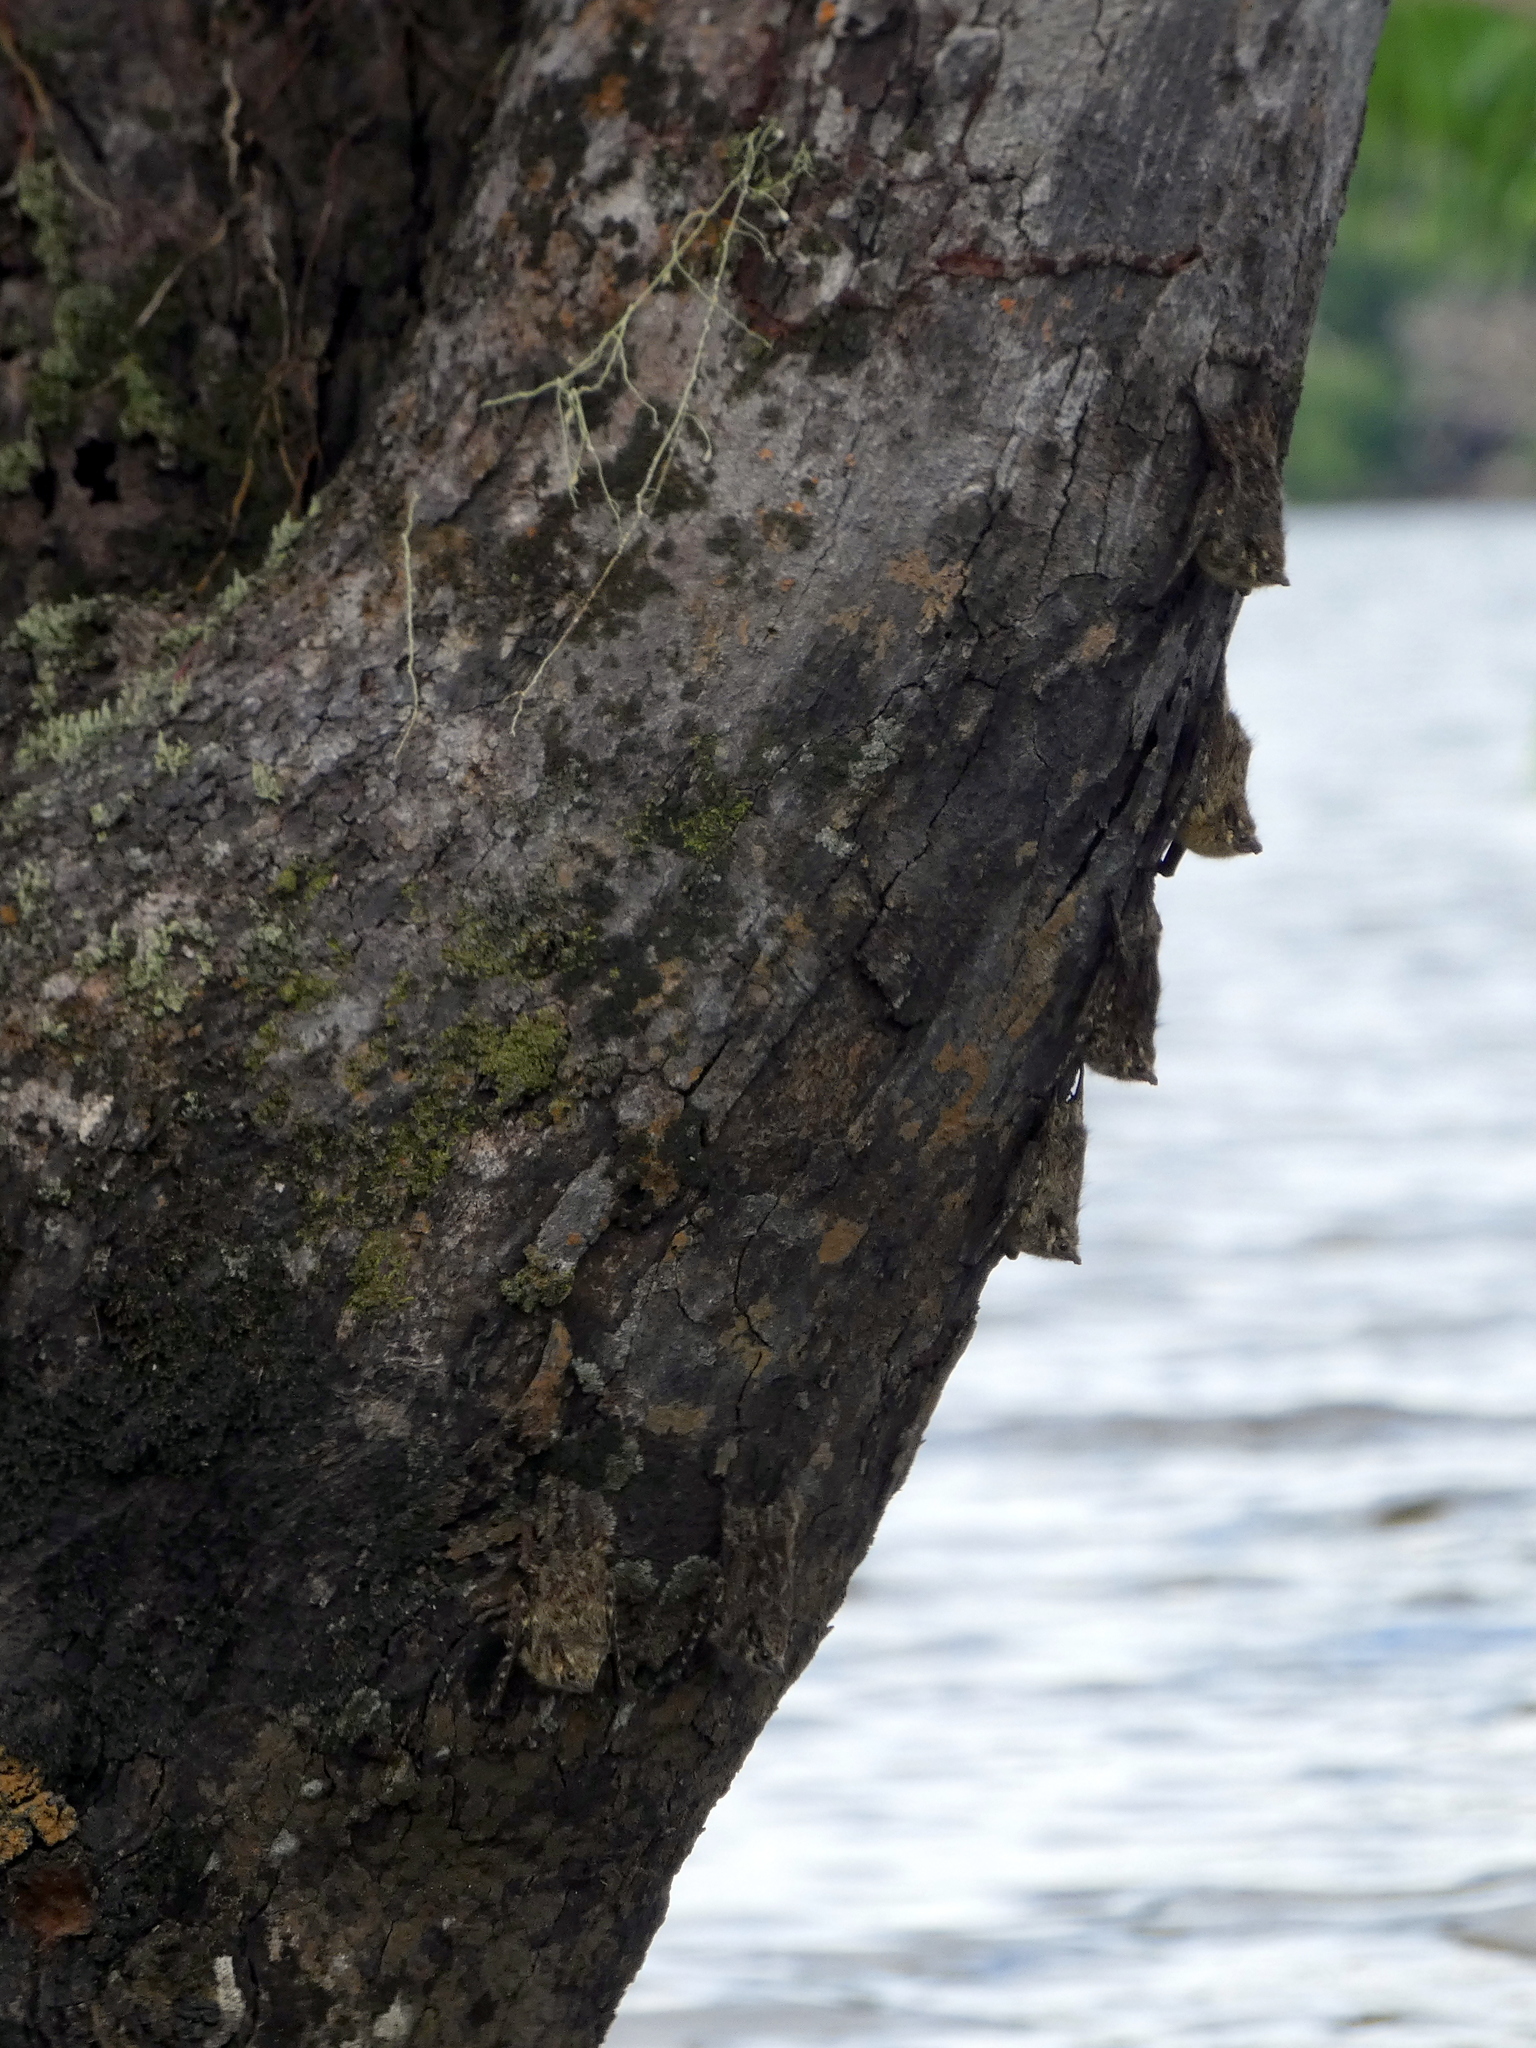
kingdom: Animalia
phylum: Chordata
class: Mammalia
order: Chiroptera
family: Emballonuridae
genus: Rhynchonycteris
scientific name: Rhynchonycteris naso
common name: Proboscis bat
